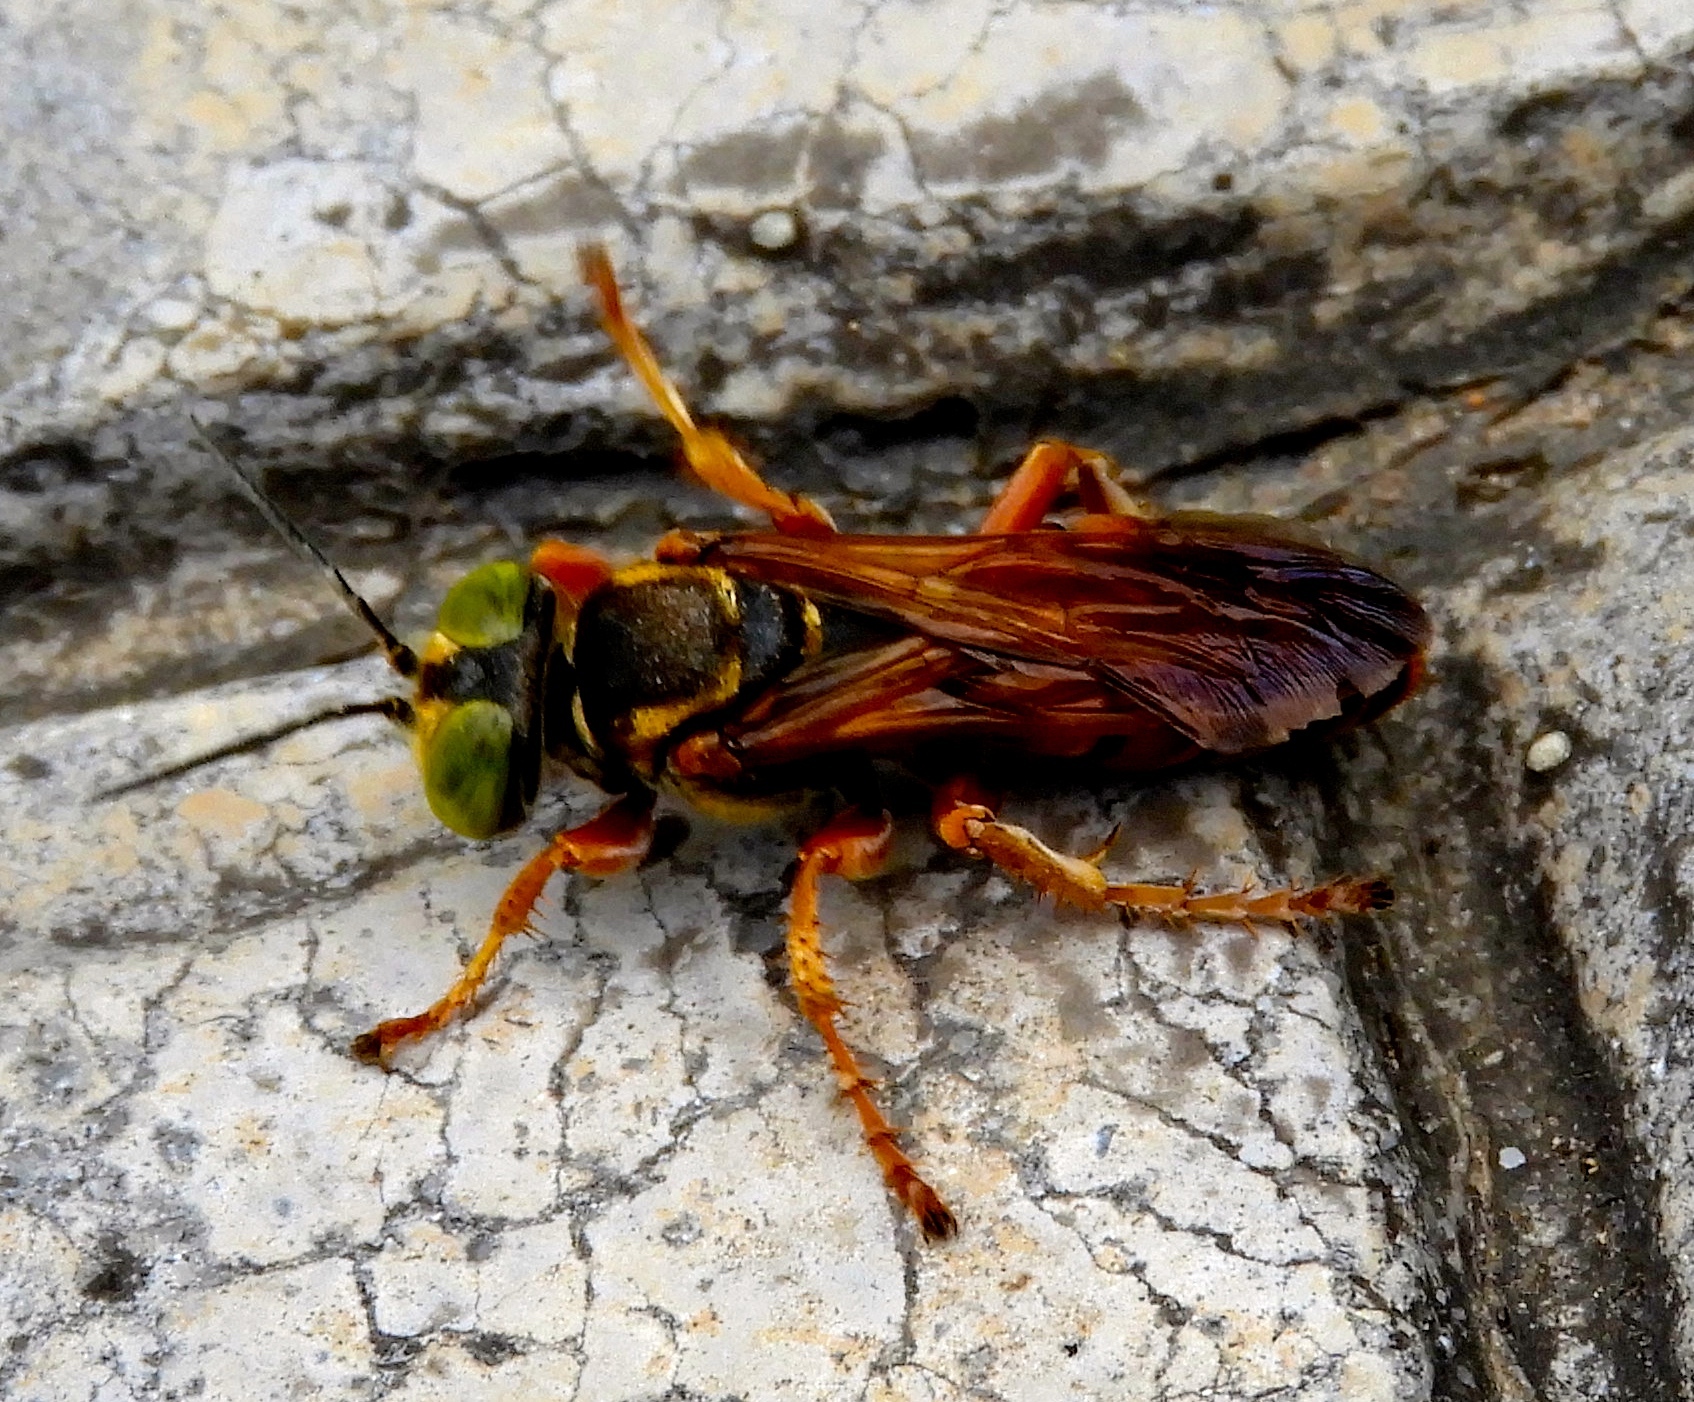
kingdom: Animalia
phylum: Arthropoda
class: Insecta
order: Hymenoptera
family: Crabronidae
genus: Tachytes
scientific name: Tachytes
